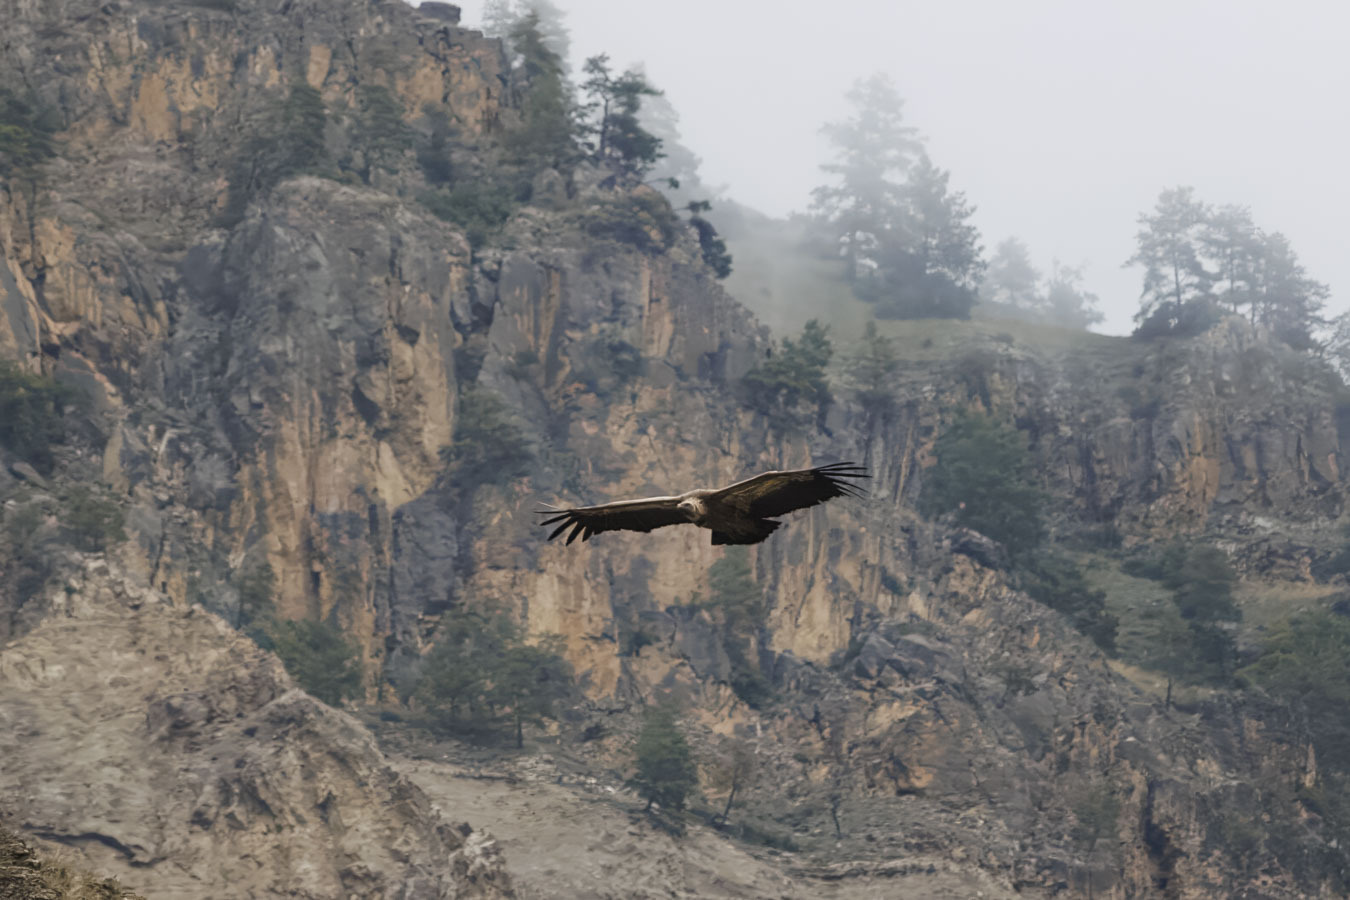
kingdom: Animalia
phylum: Chordata
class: Aves
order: Accipitriformes
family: Accipitridae
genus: Gyps
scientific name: Gyps fulvus
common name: Griffon vulture
